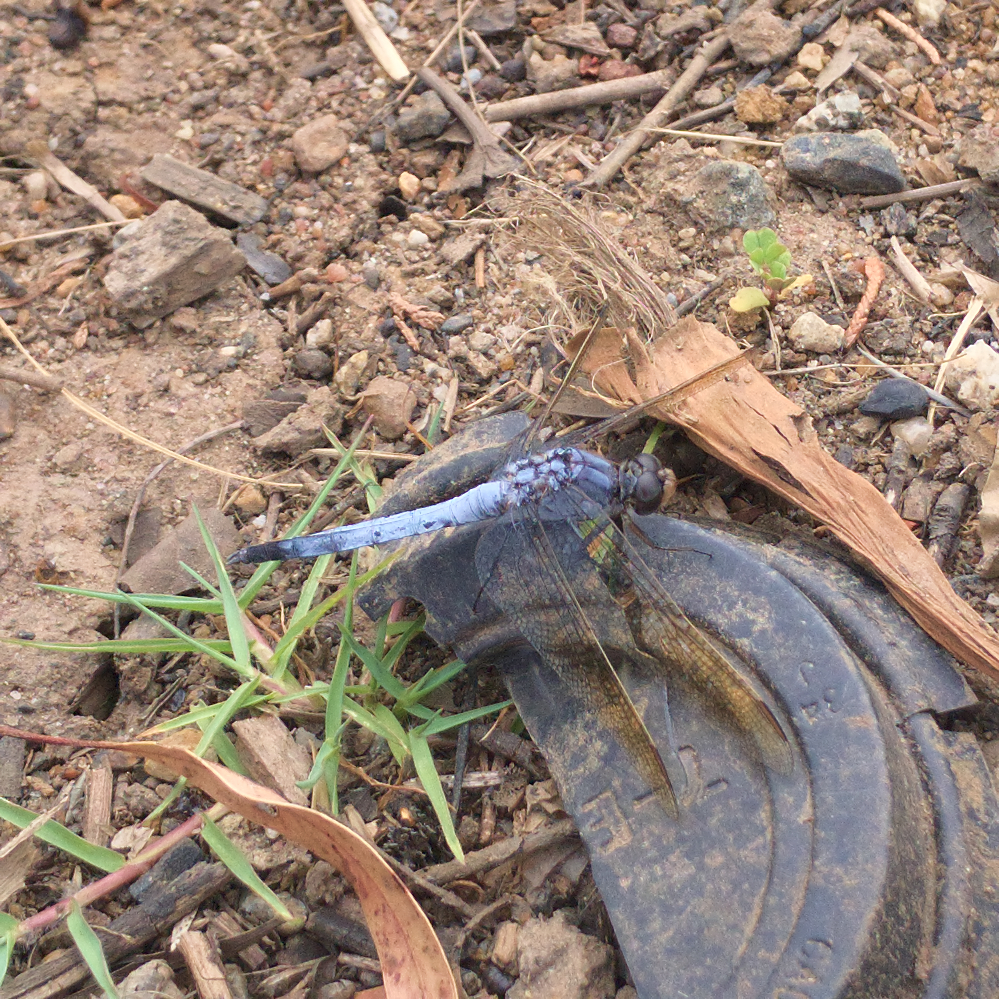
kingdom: Animalia
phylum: Arthropoda
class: Insecta
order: Odonata
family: Libellulidae
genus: Orthetrum
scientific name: Orthetrum caledonicum
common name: Blue skimmer
